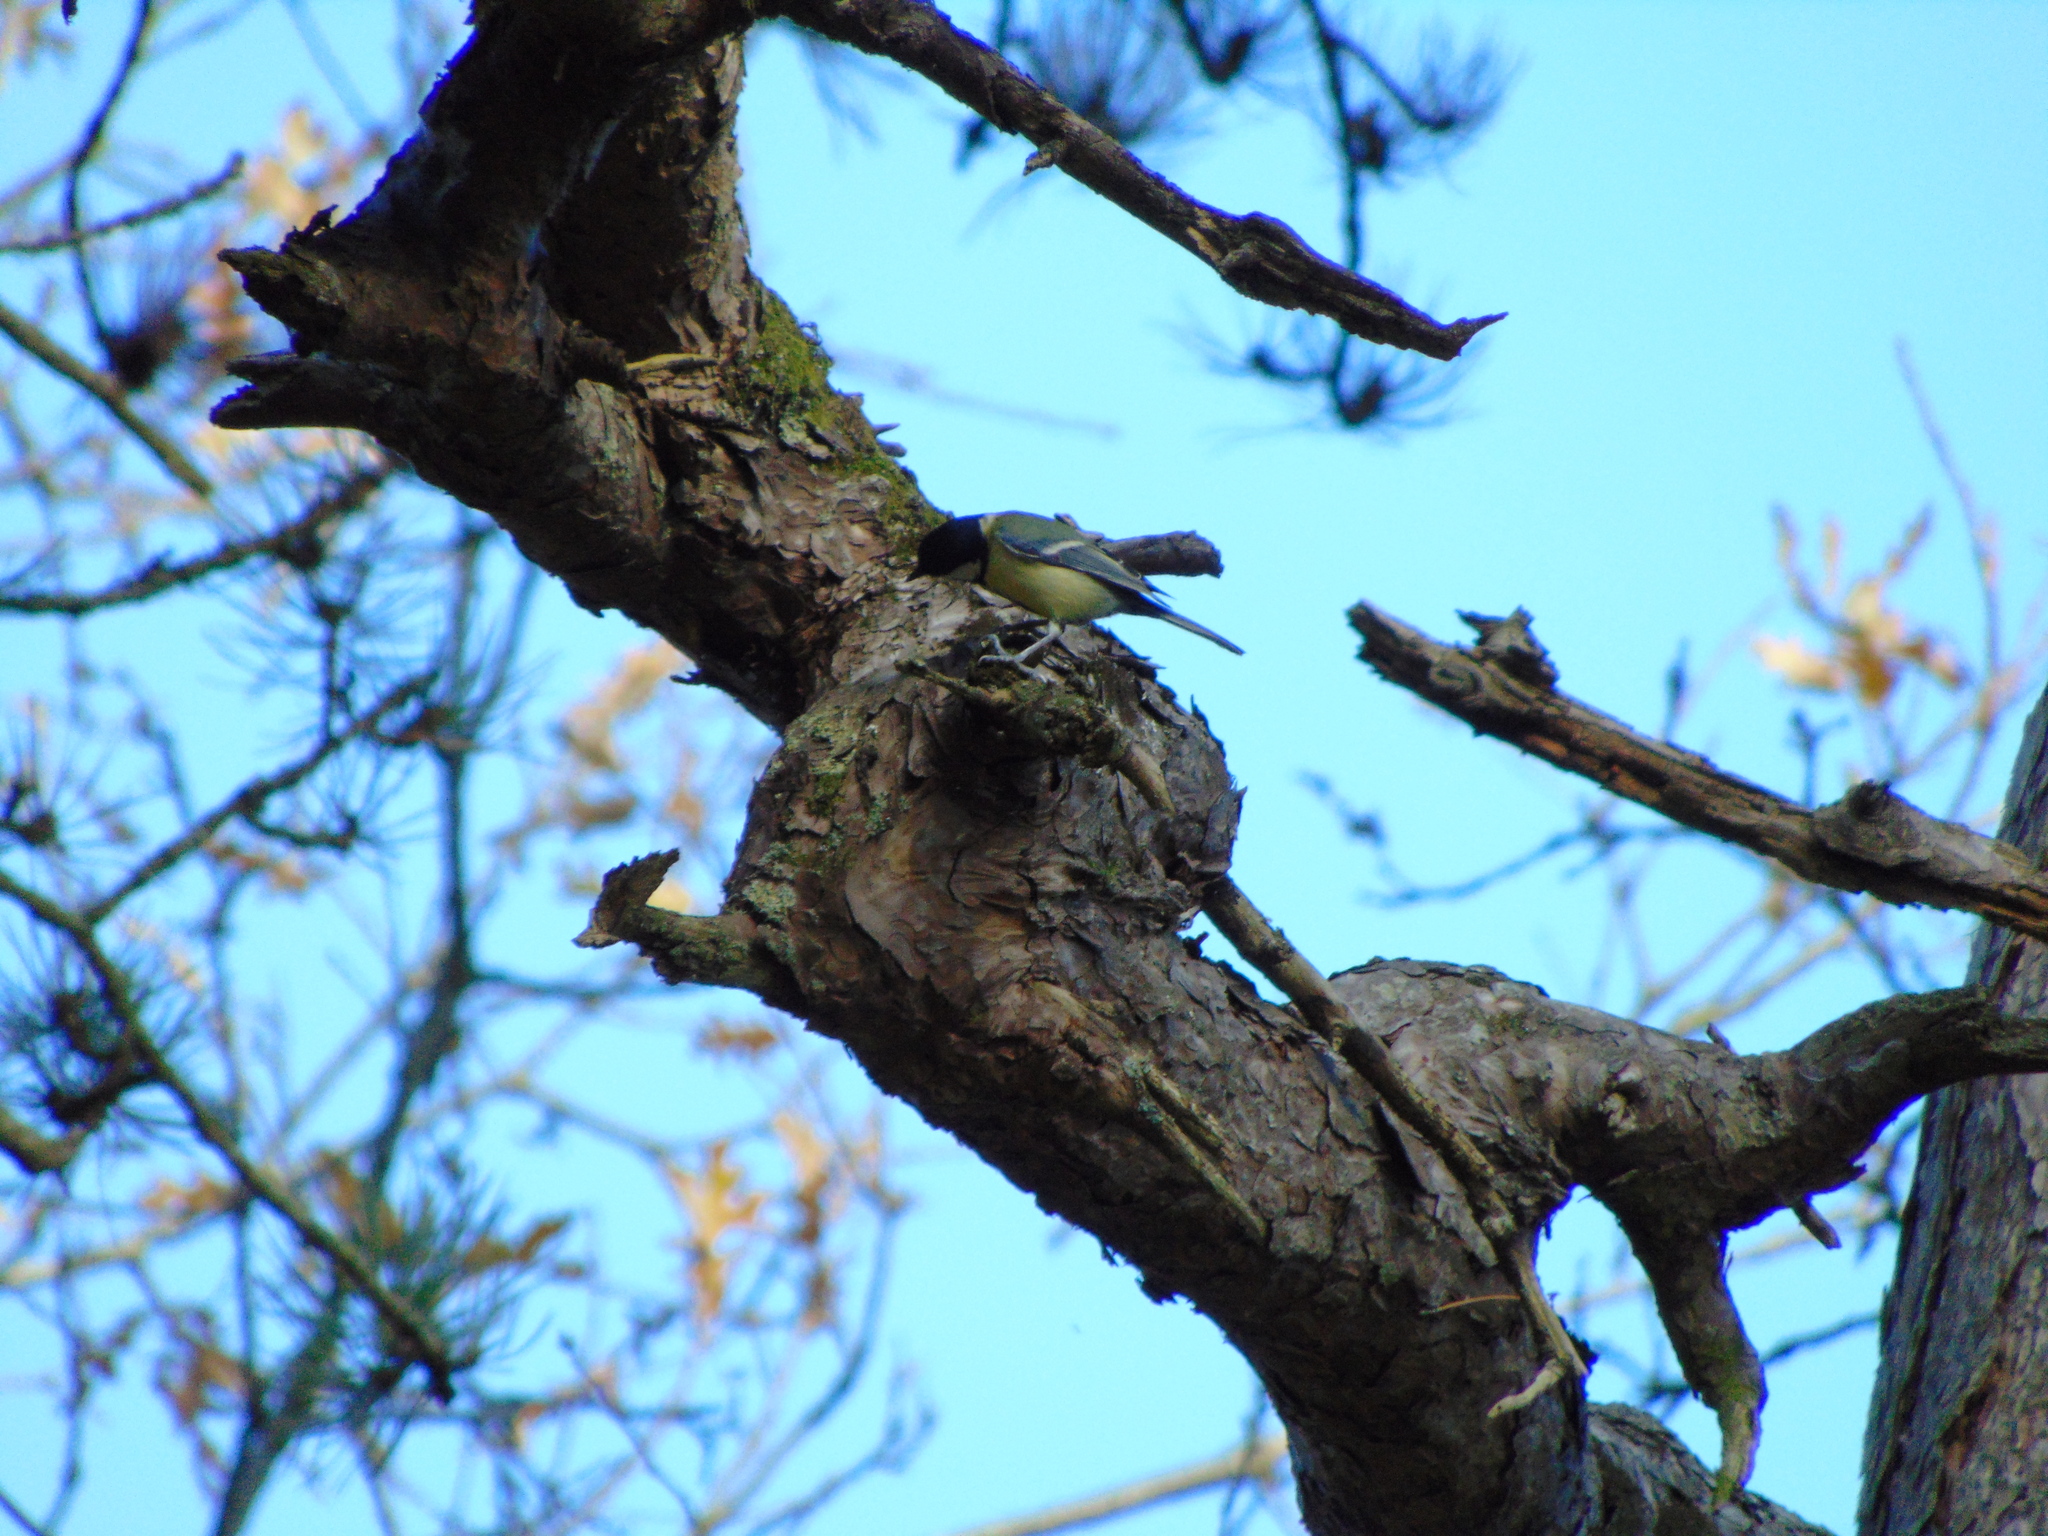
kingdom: Animalia
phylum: Chordata
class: Aves
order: Passeriformes
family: Paridae
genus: Parus
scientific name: Parus major
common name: Great tit
